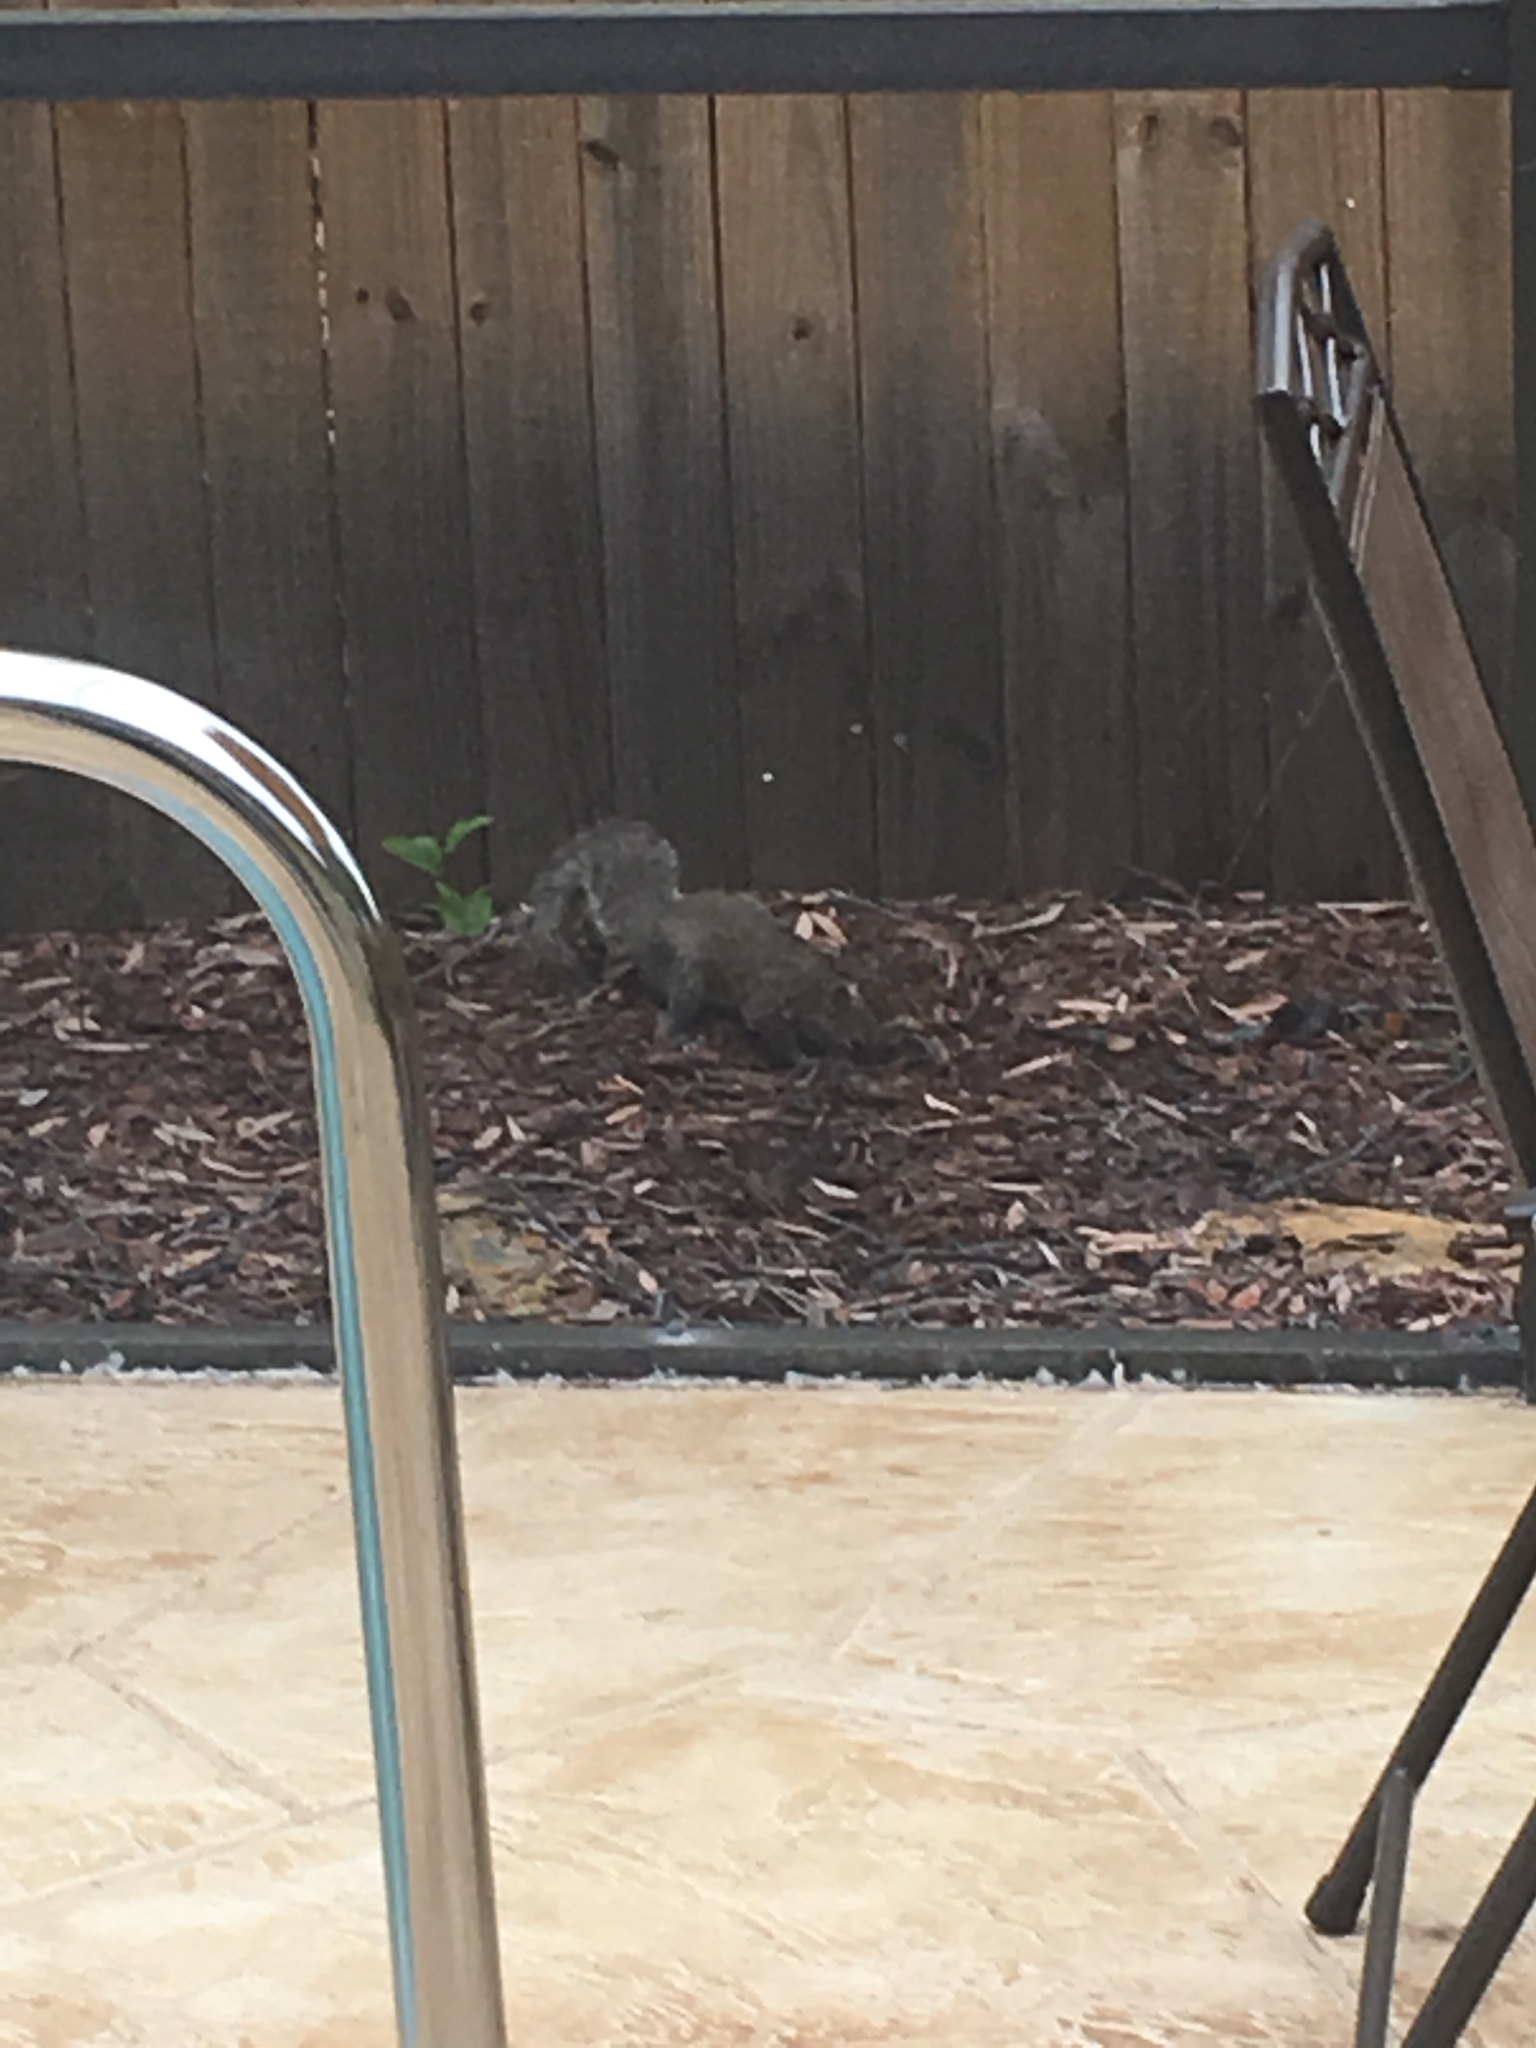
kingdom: Animalia
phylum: Chordata
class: Mammalia
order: Rodentia
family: Sciuridae
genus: Sciurus
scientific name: Sciurus carolinensis
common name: Eastern gray squirrel
